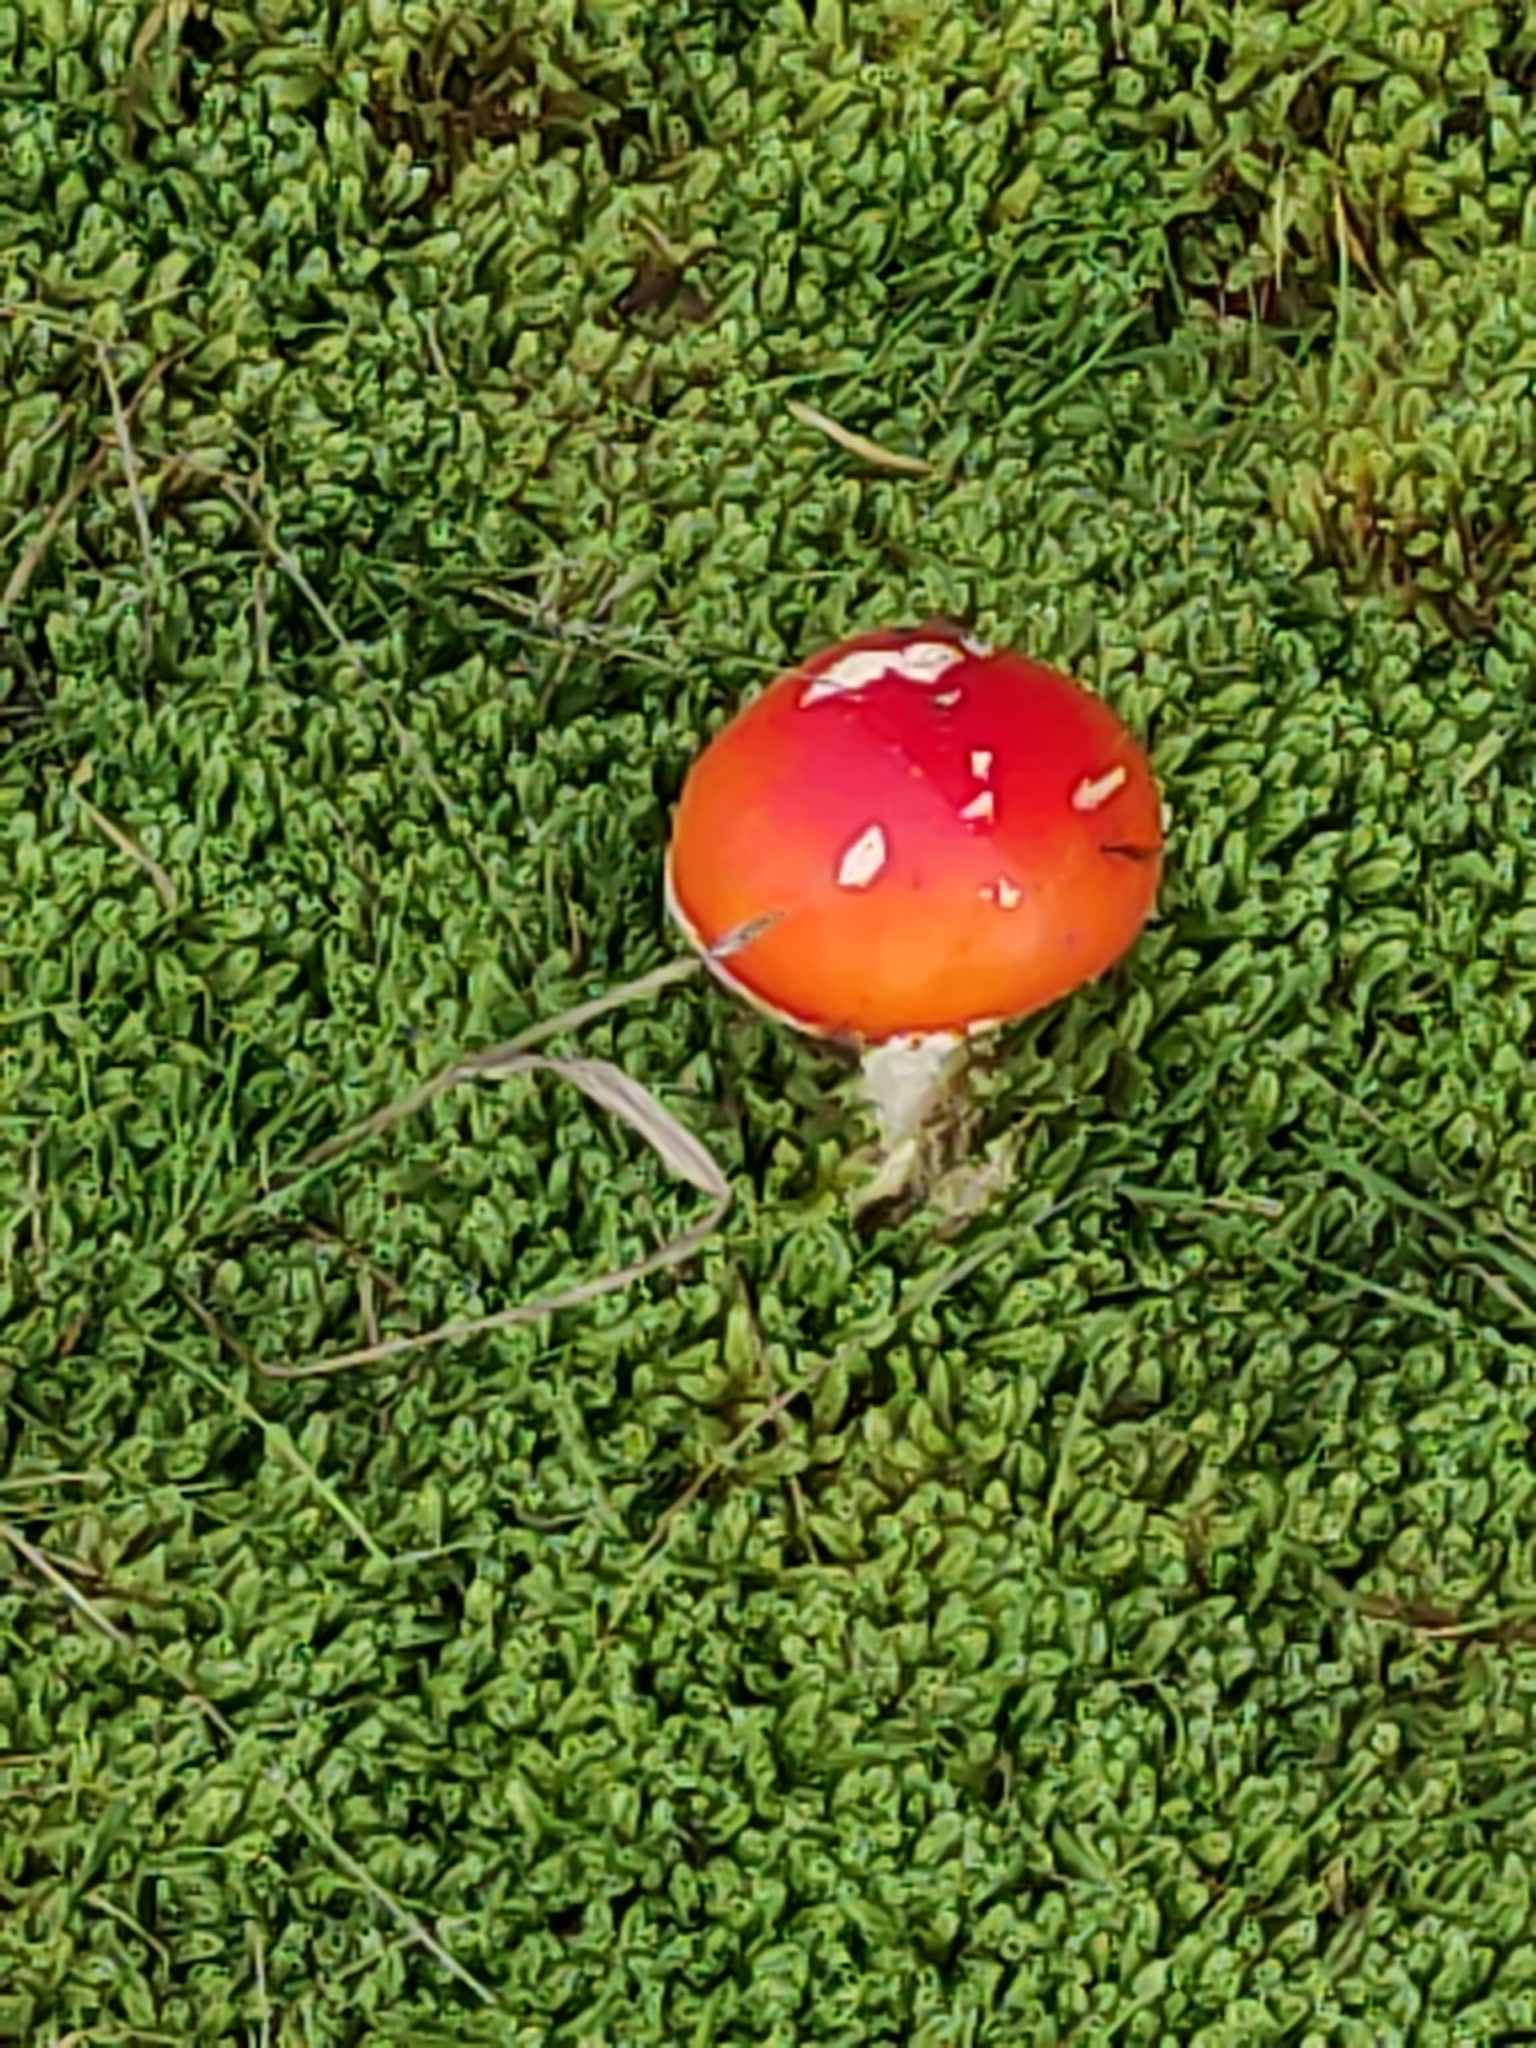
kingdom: Fungi
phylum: Basidiomycota
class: Agaricomycetes
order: Agaricales
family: Amanitaceae
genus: Amanita
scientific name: Amanita muscaria
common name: Fly agaric
